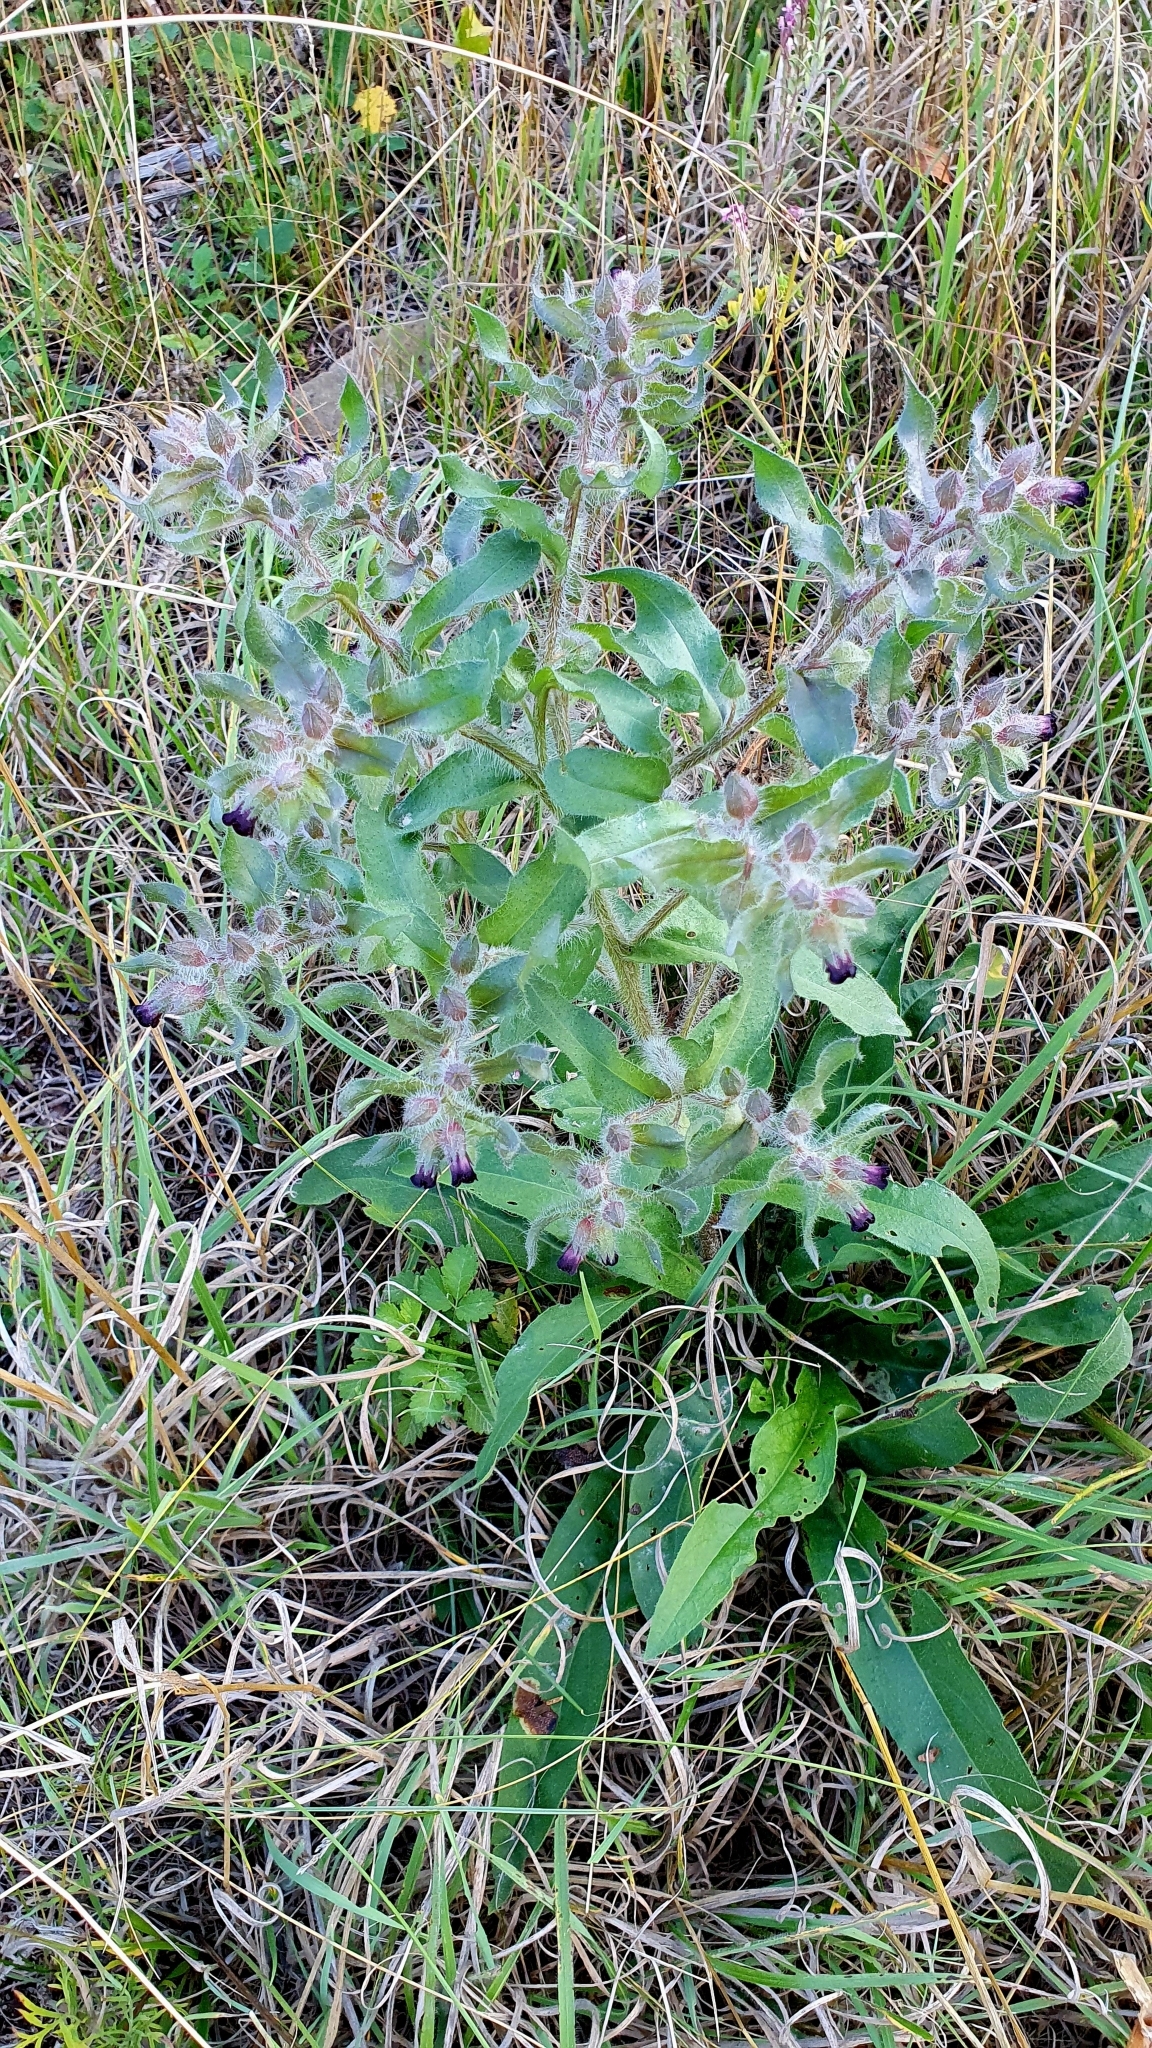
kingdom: Plantae
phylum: Tracheophyta
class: Magnoliopsida
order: Boraginales
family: Boraginaceae
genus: Nonea
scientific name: Nonea pulla
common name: Brown nonea
